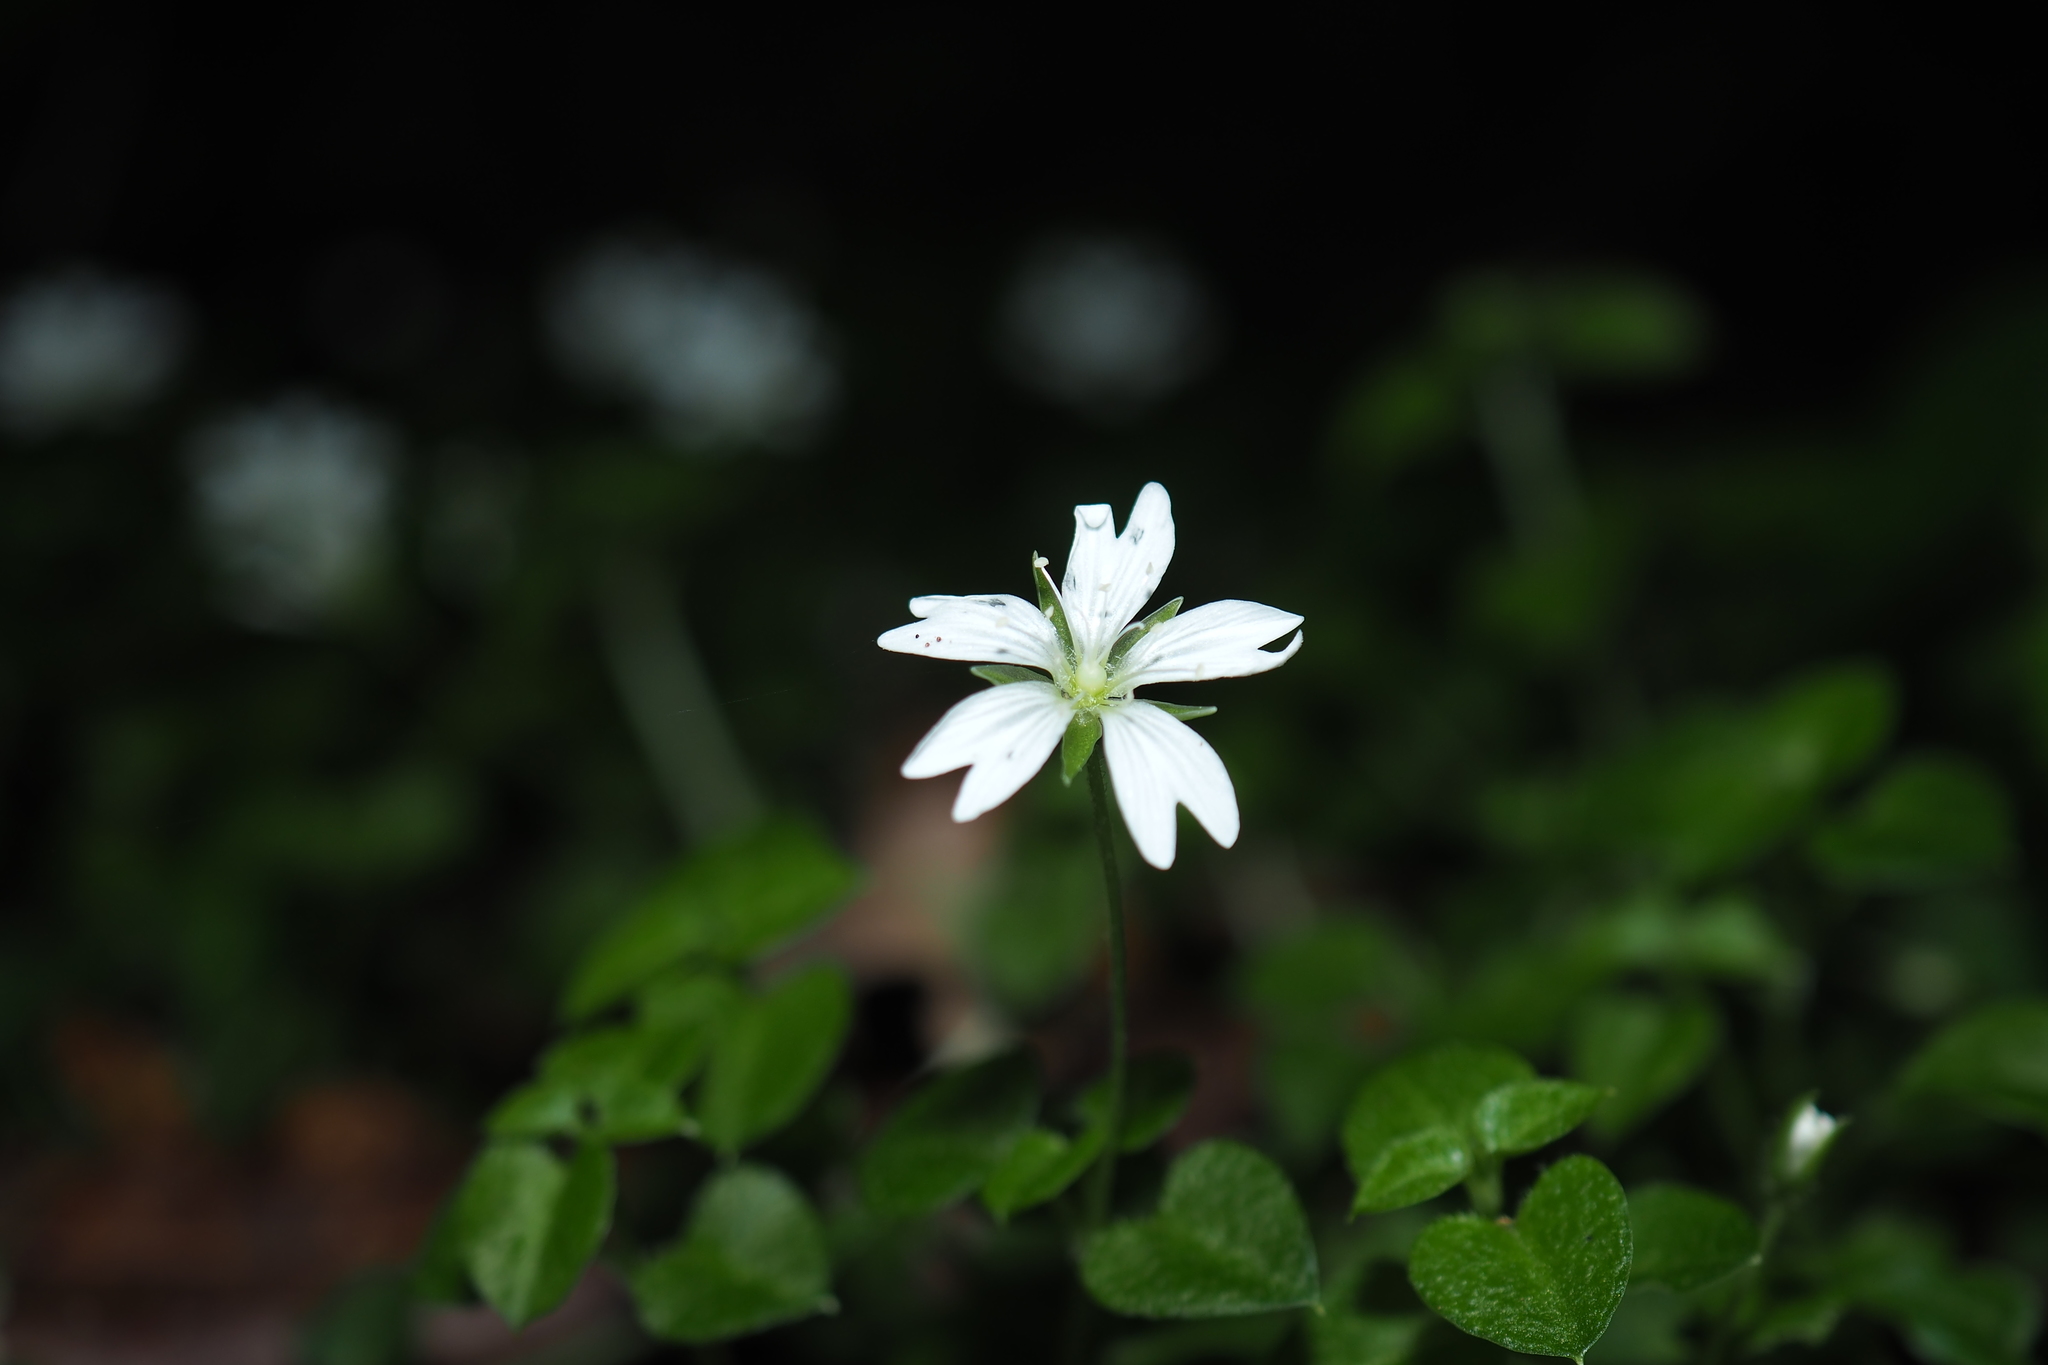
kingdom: Plantae
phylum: Tracheophyta
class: Magnoliopsida
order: Caryophyllales
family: Caryophyllaceae
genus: Nubelaria
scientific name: Nubelaria arisanensis
